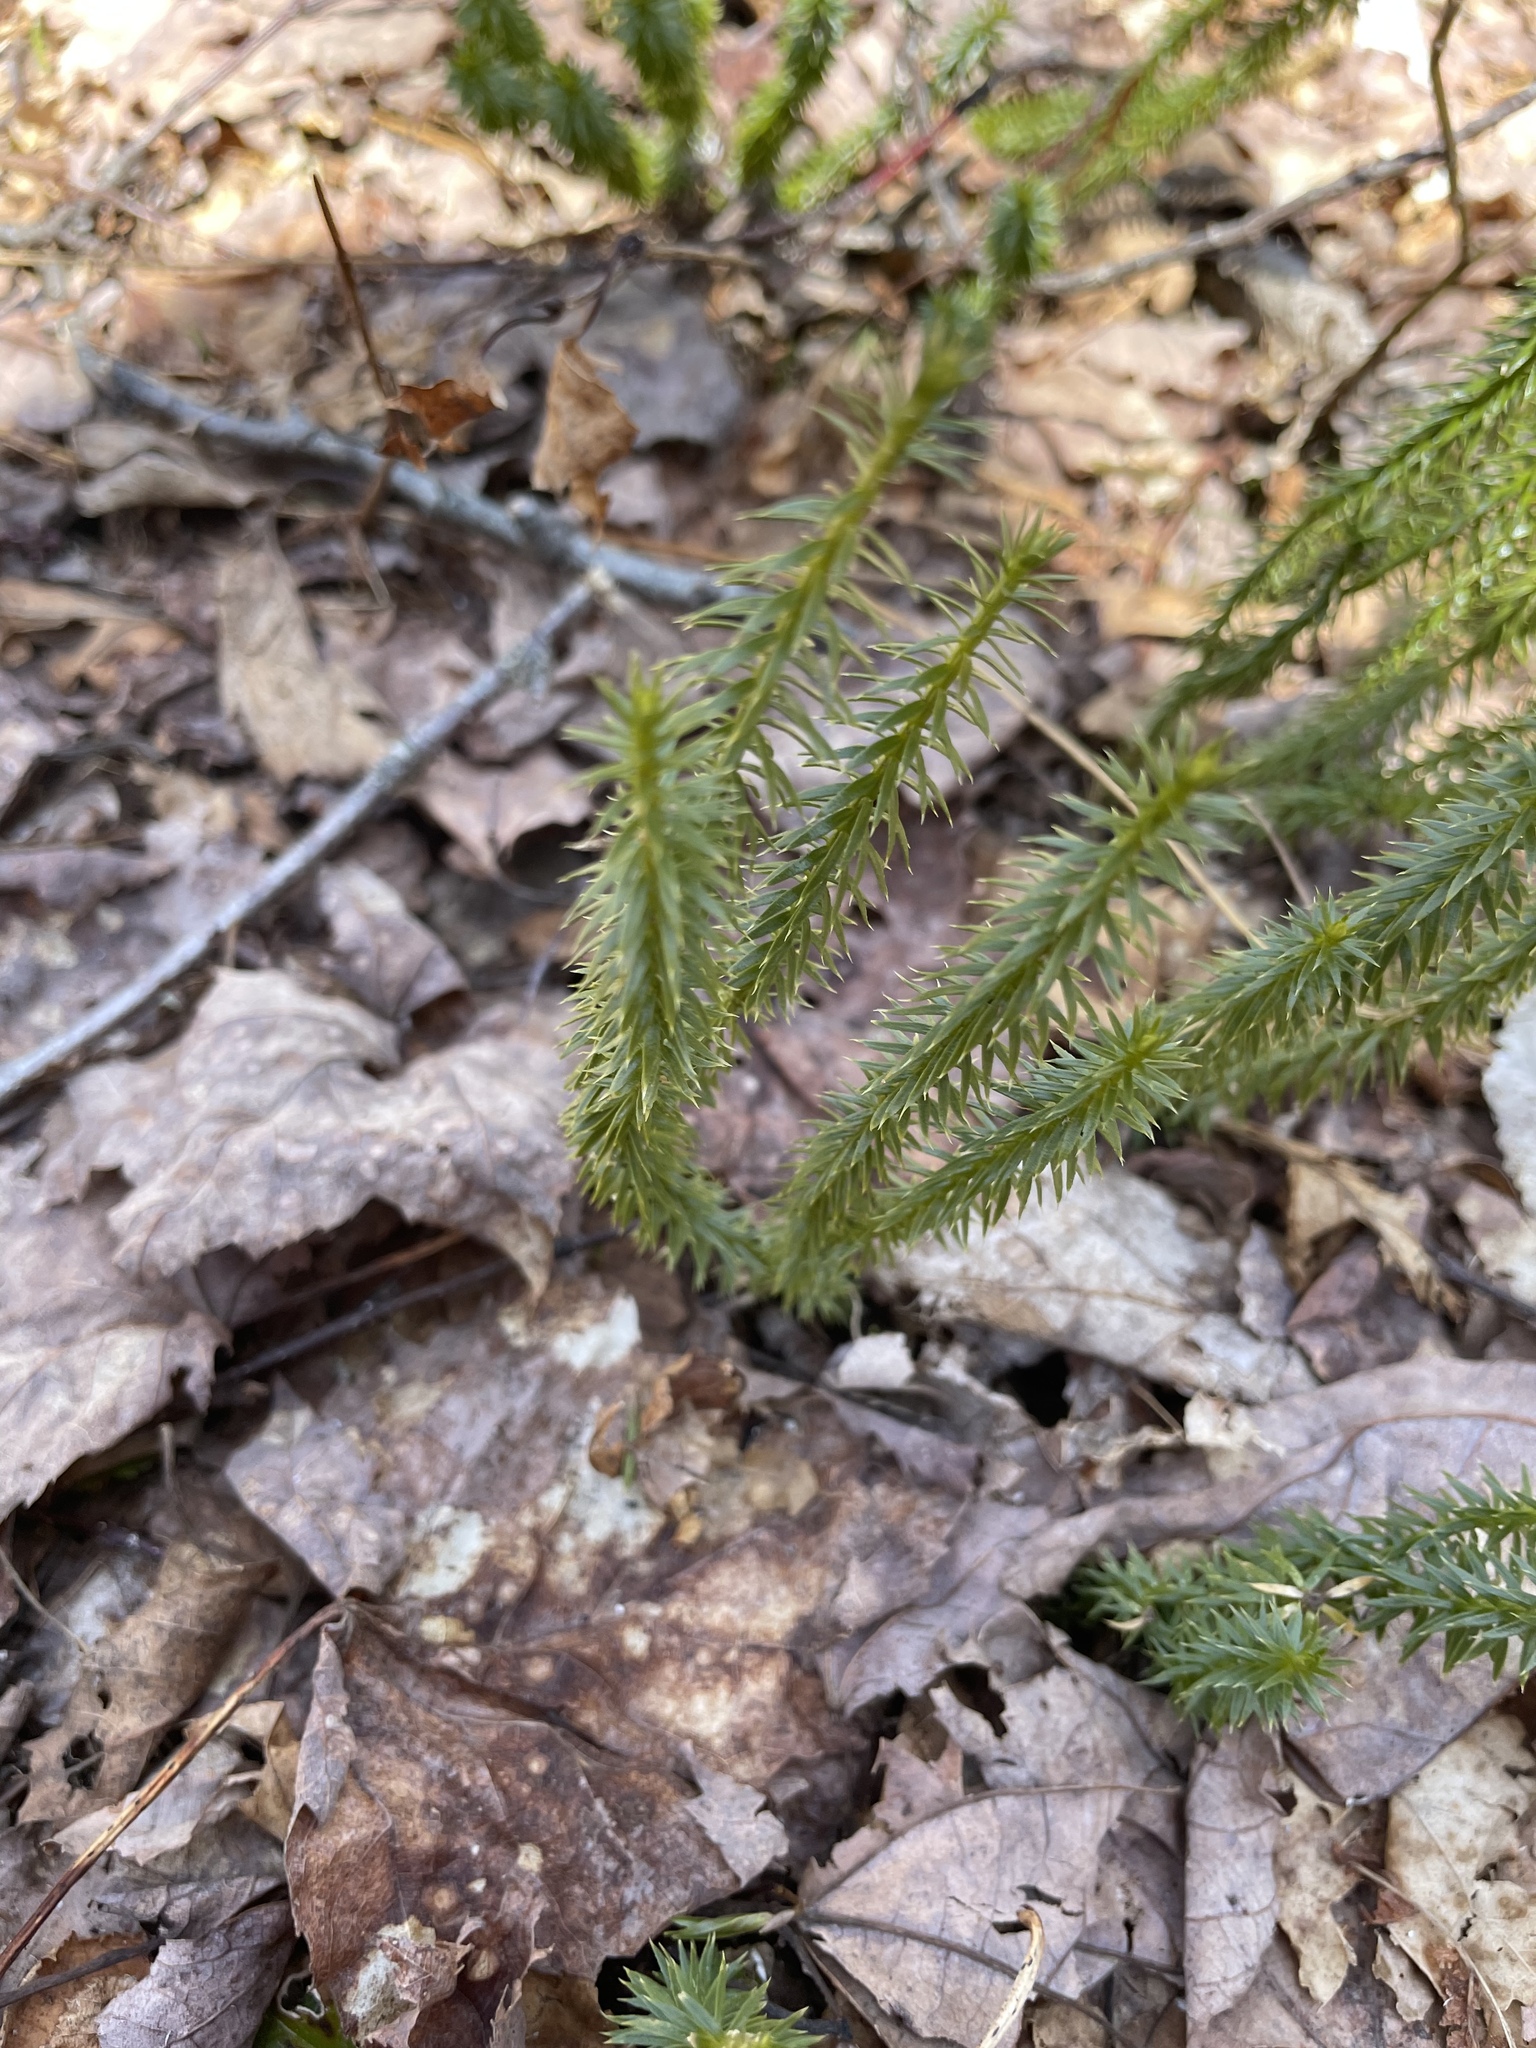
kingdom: Plantae
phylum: Tracheophyta
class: Lycopodiopsida
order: Lycopodiales
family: Lycopodiaceae
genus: Spinulum
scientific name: Spinulum annotinum
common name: Interrupted club-moss
